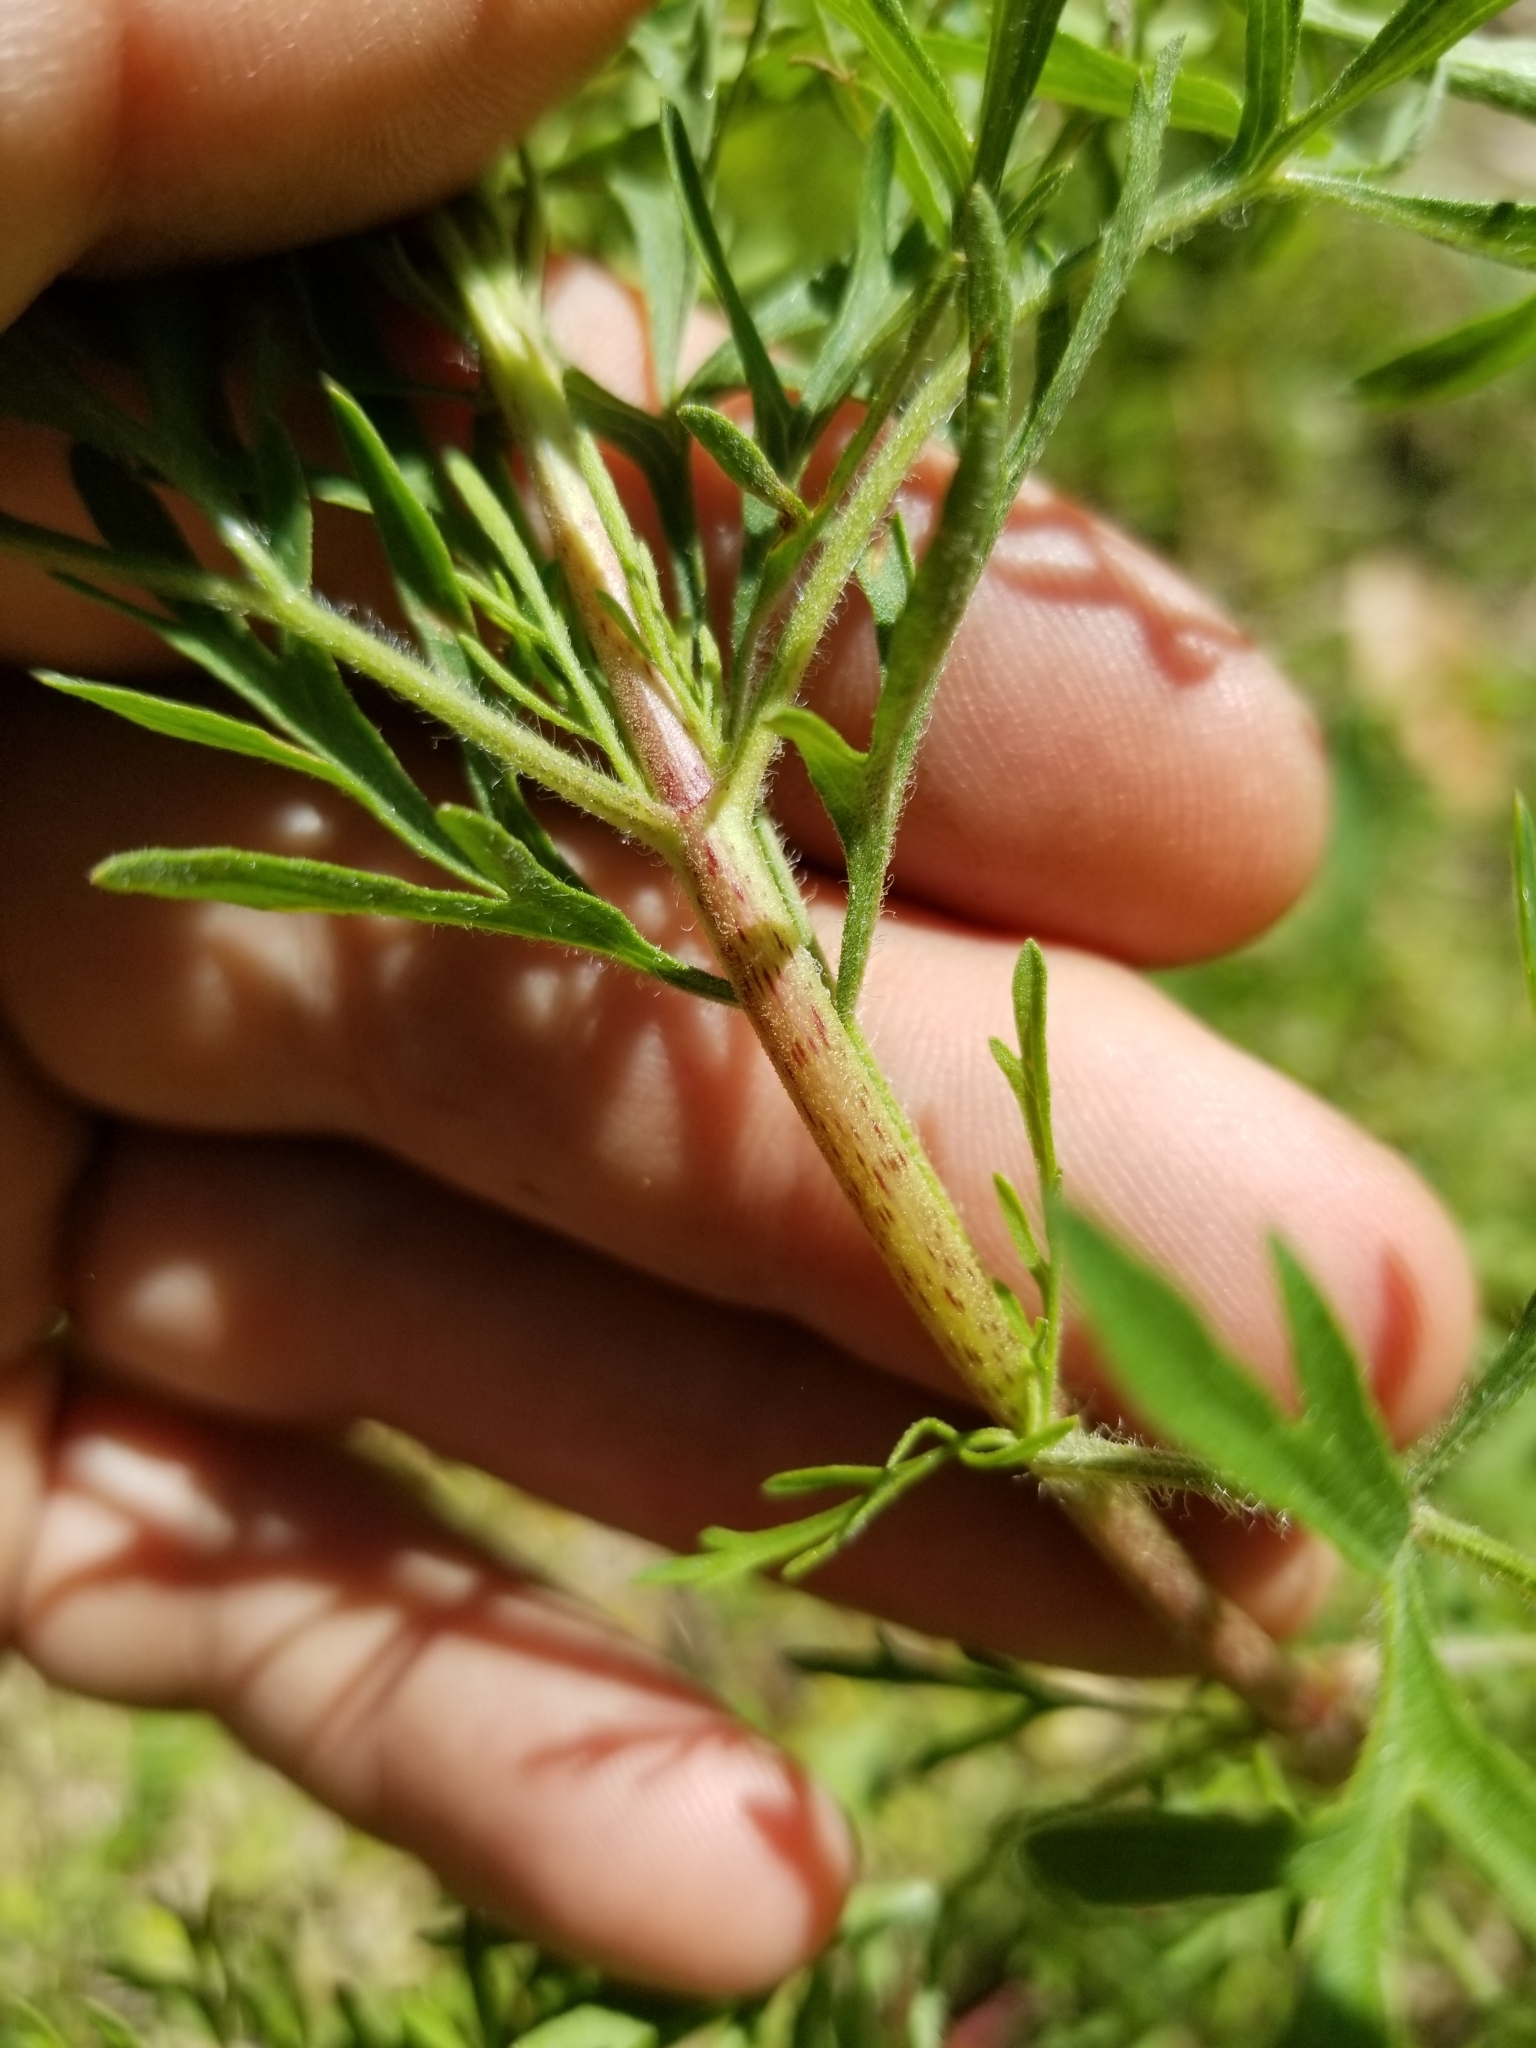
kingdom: Plantae
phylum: Tracheophyta
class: Magnoliopsida
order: Asterales
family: Asteraceae
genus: Eupatorium
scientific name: Eupatorium compositifolium
